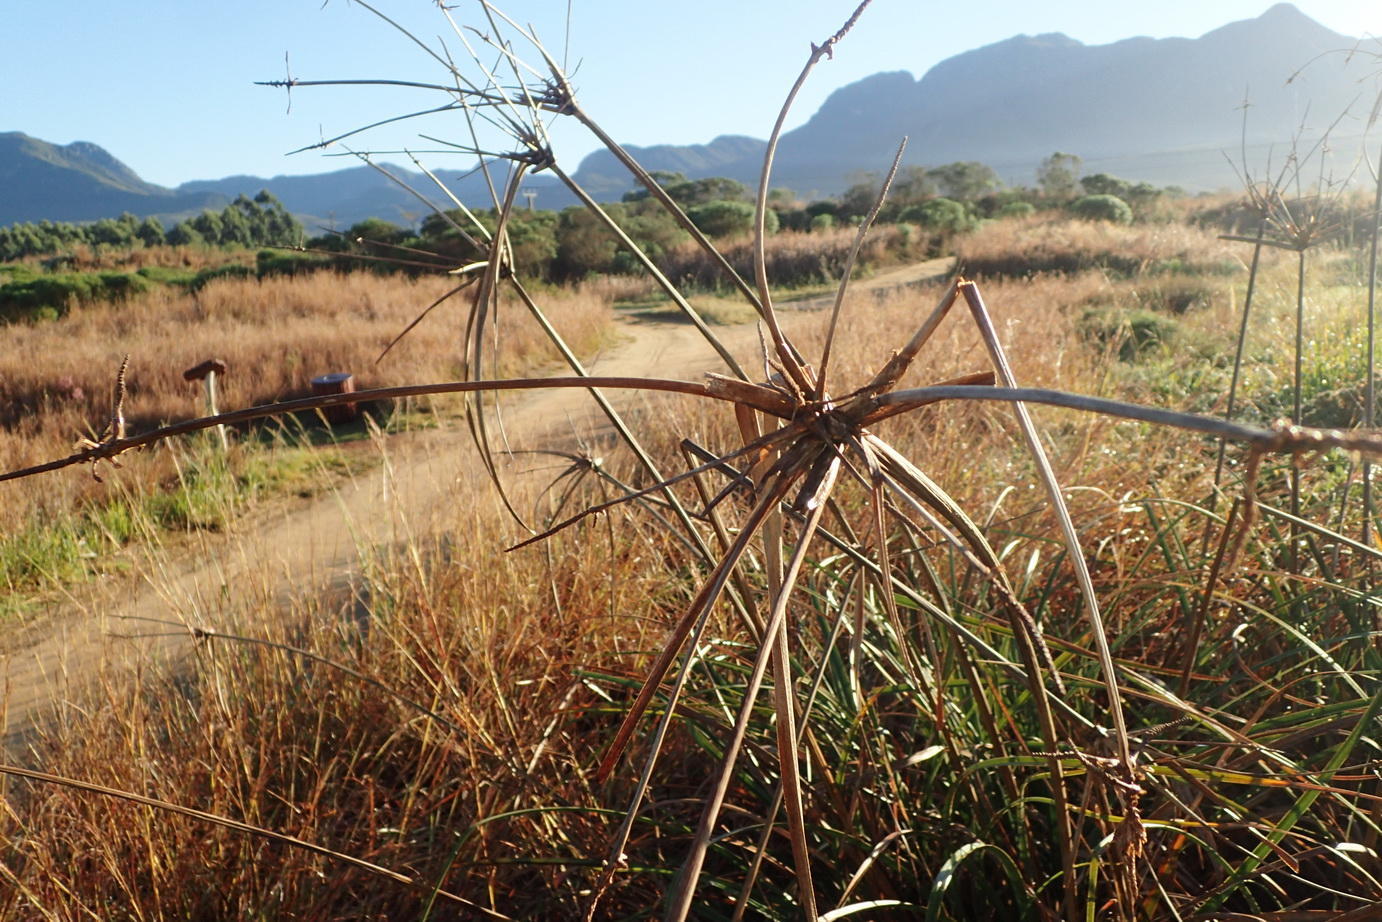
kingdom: Plantae
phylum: Tracheophyta
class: Liliopsida
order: Poales
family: Cyperaceae
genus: Cyperus
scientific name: Cyperus thunbergii
